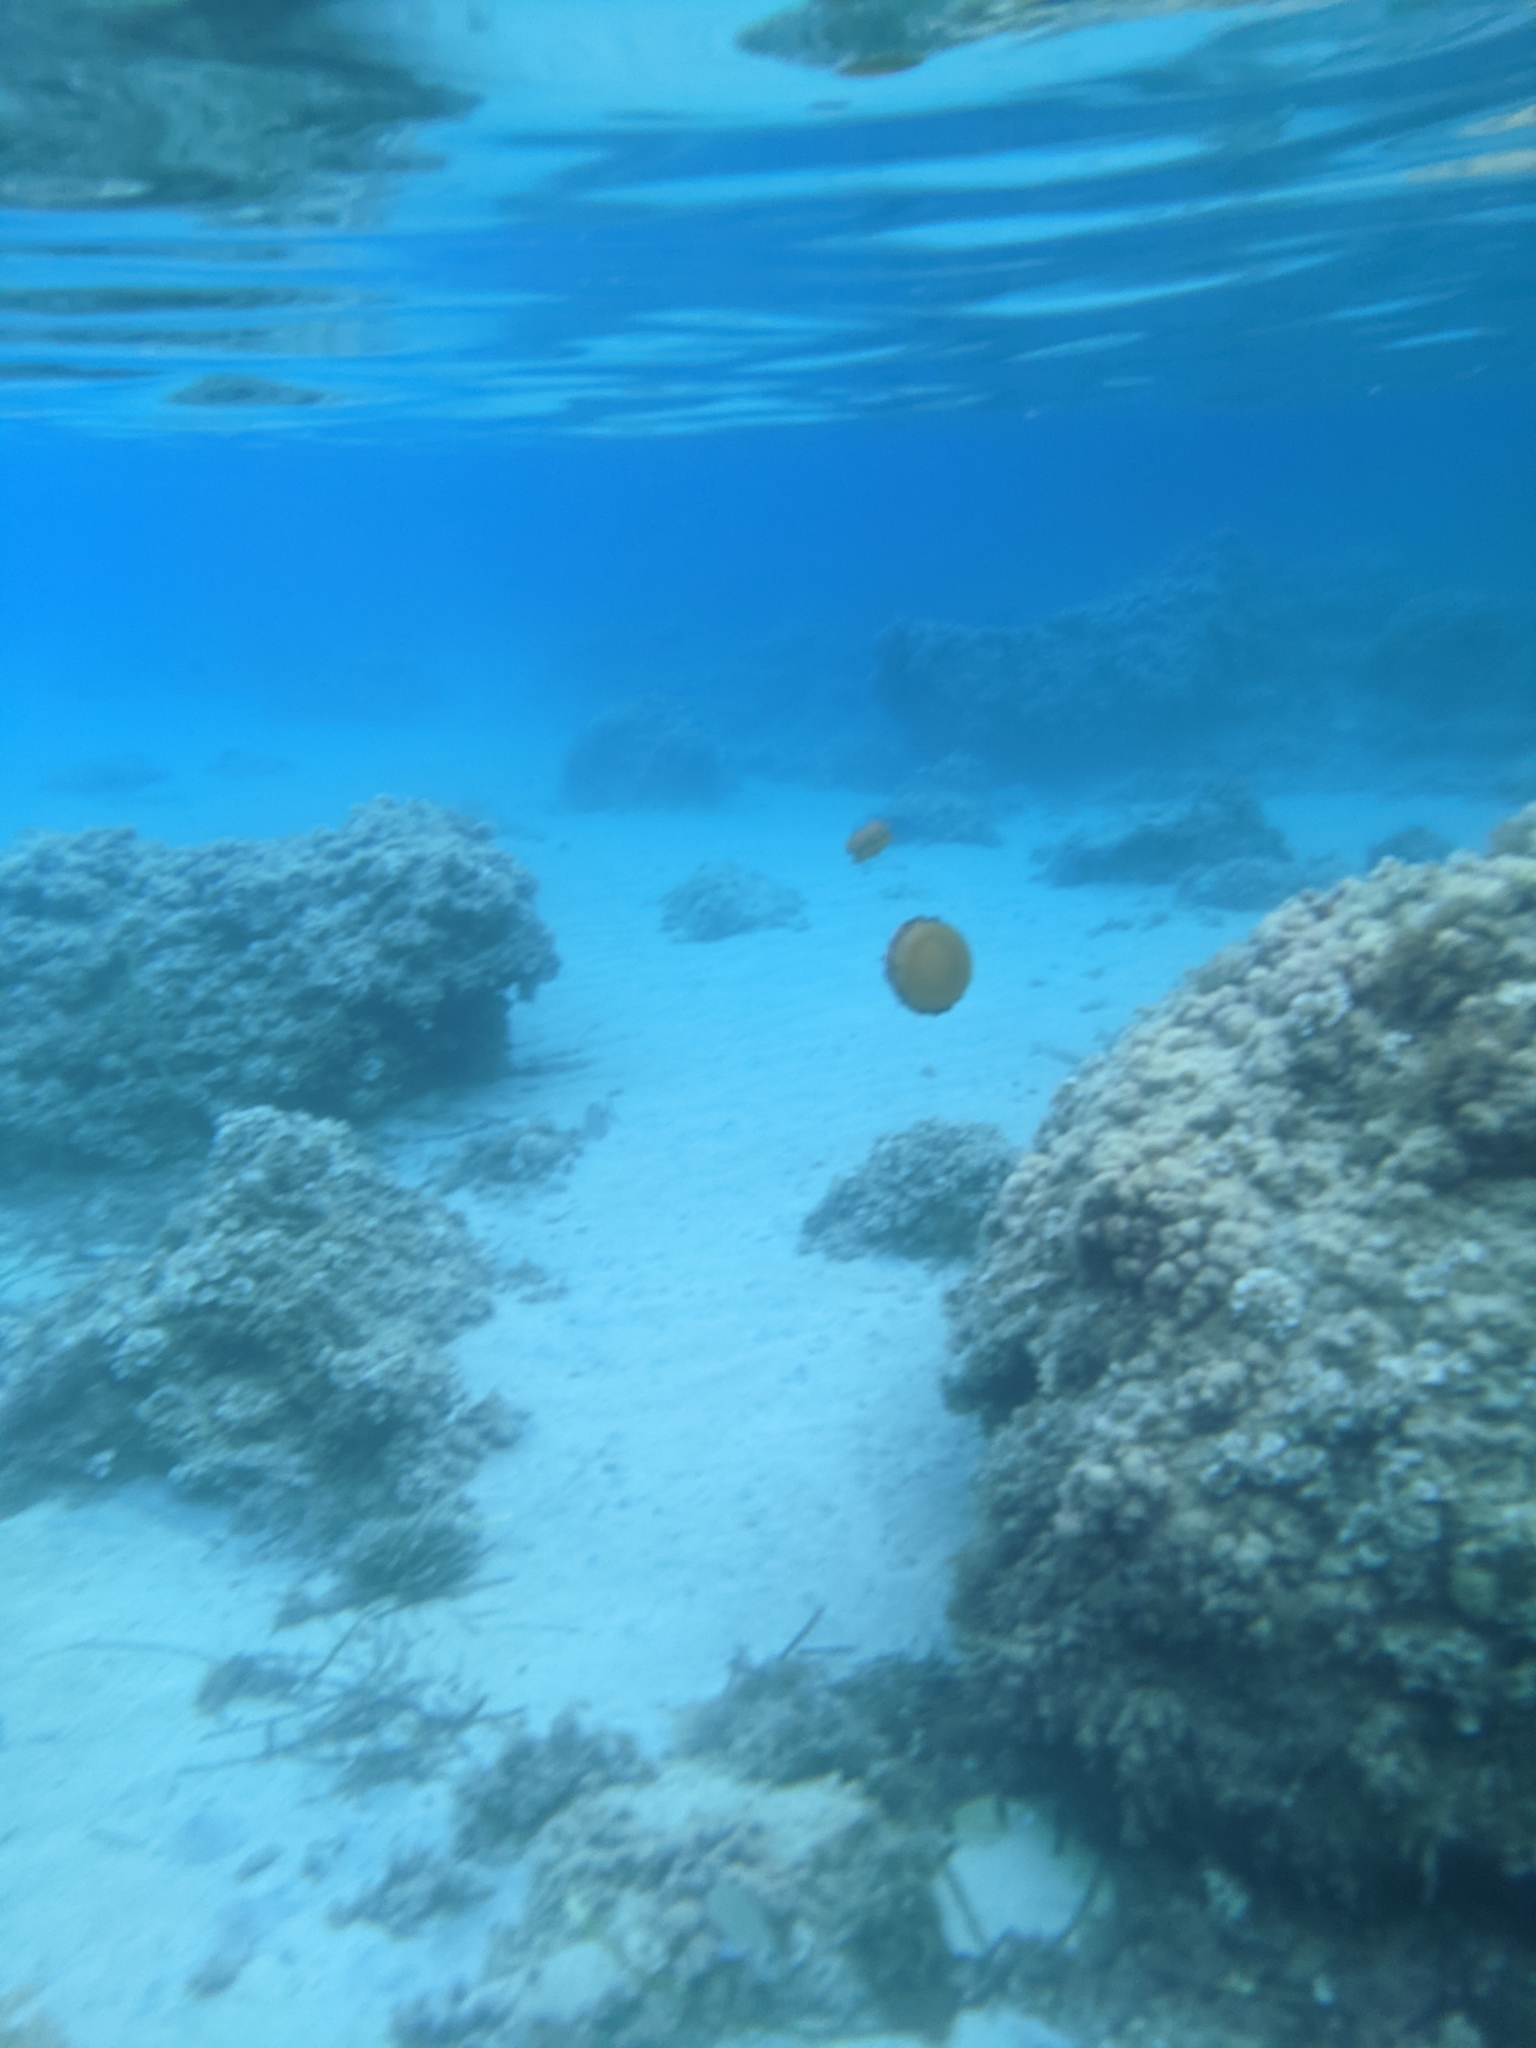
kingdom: Animalia
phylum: Cnidaria
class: Scyphozoa
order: Rhizostomeae
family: Cepheidae
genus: Cotylorhiza
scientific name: Cotylorhiza tuberculata
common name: Mediterranean jelly
